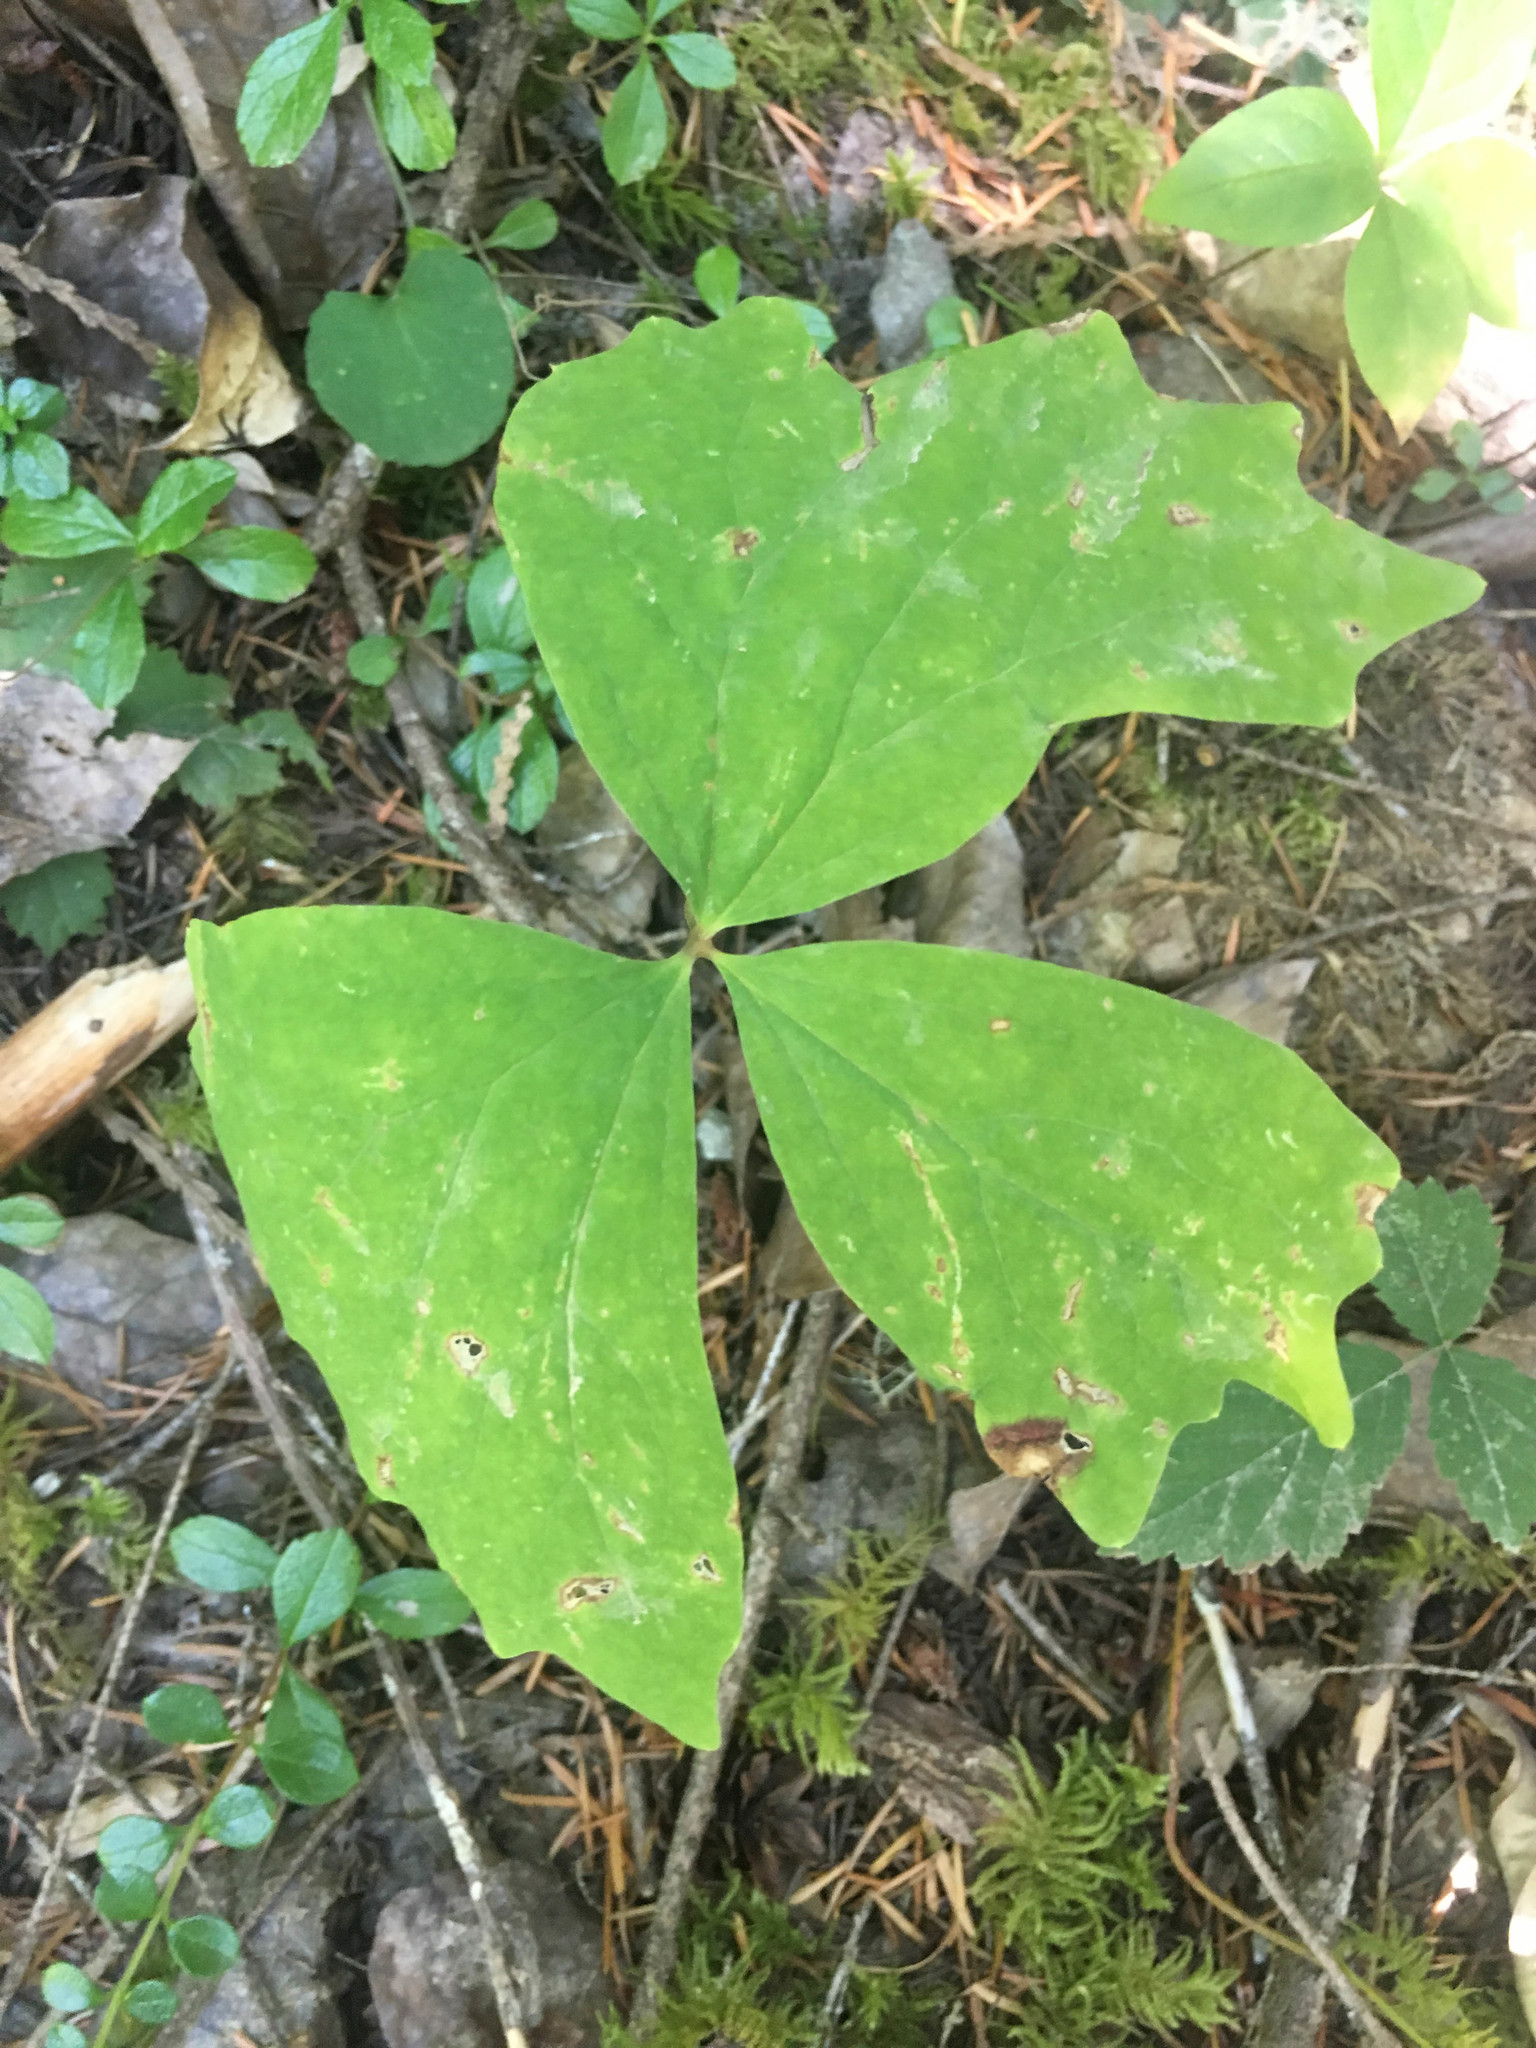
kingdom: Plantae
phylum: Tracheophyta
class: Magnoliopsida
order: Ranunculales
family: Berberidaceae
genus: Achlys
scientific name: Achlys triphylla
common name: Vanilla-leaf
